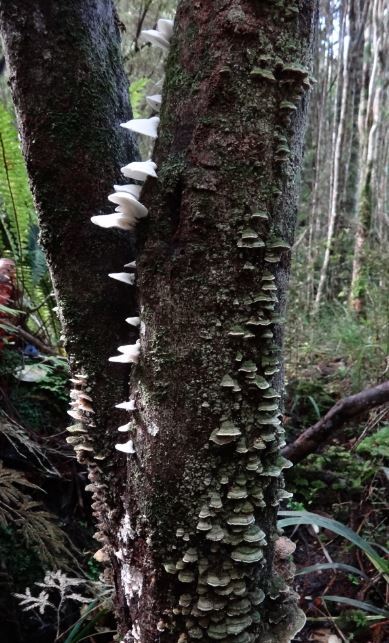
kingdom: Fungi
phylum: Basidiomycota
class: Agaricomycetes
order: Polyporales
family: Irpicaceae
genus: Gloeoporus
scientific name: Gloeoporus phlebophorus
